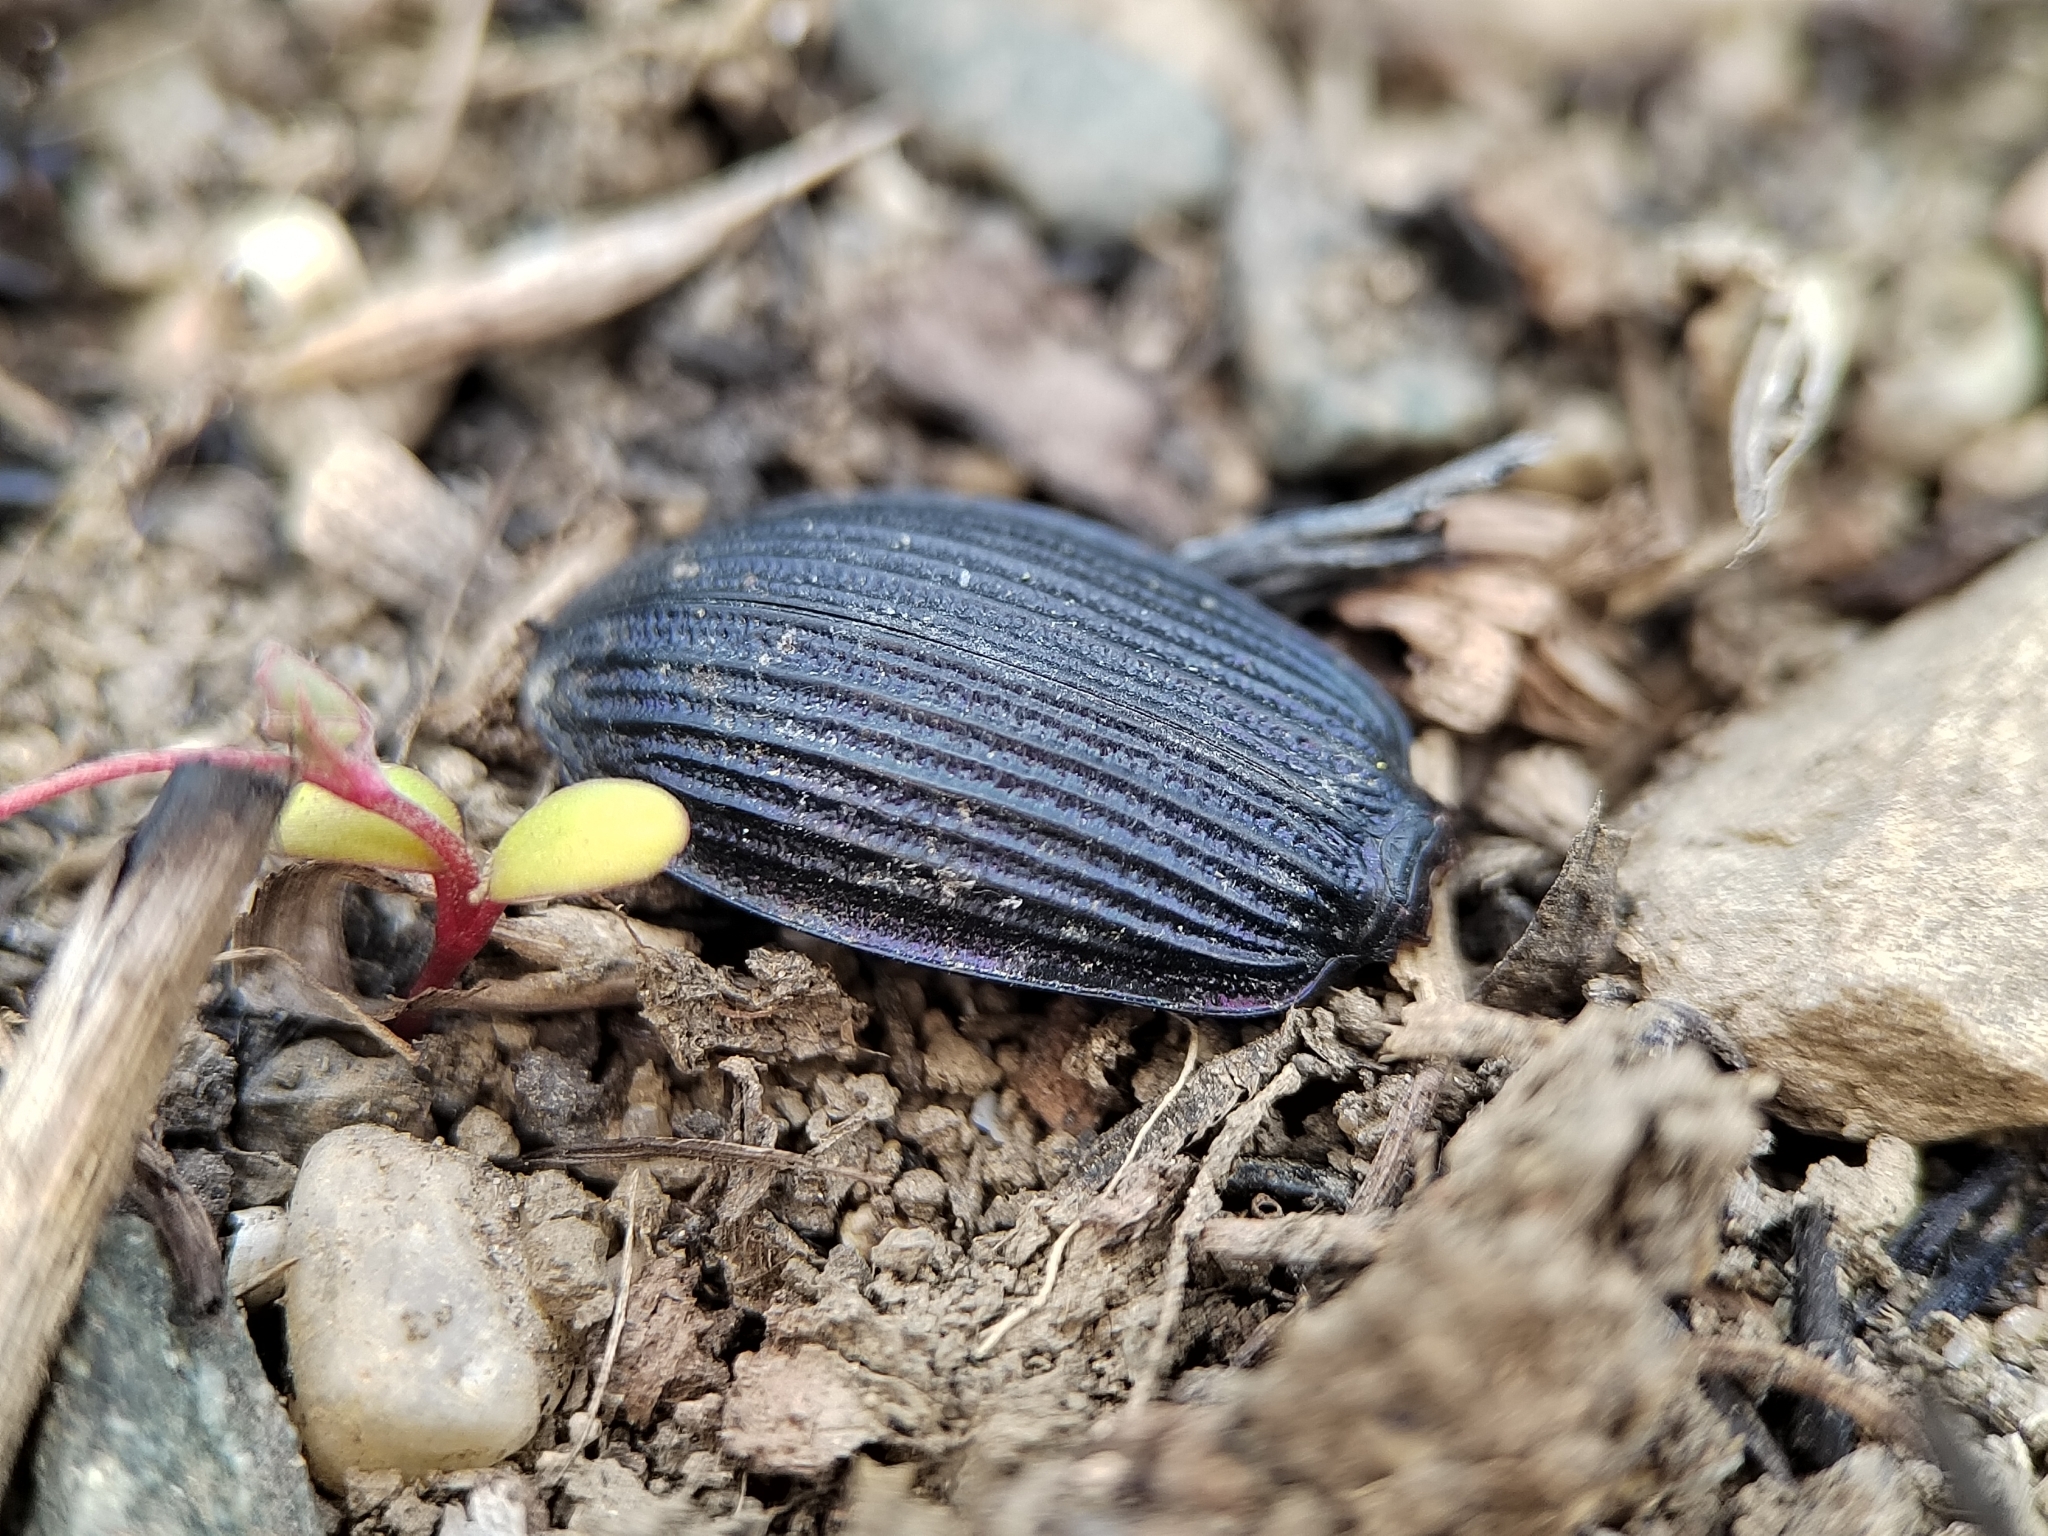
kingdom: Animalia
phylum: Arthropoda
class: Insecta
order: Coleoptera
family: Carabidae
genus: Carabus
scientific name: Carabus exaratus
